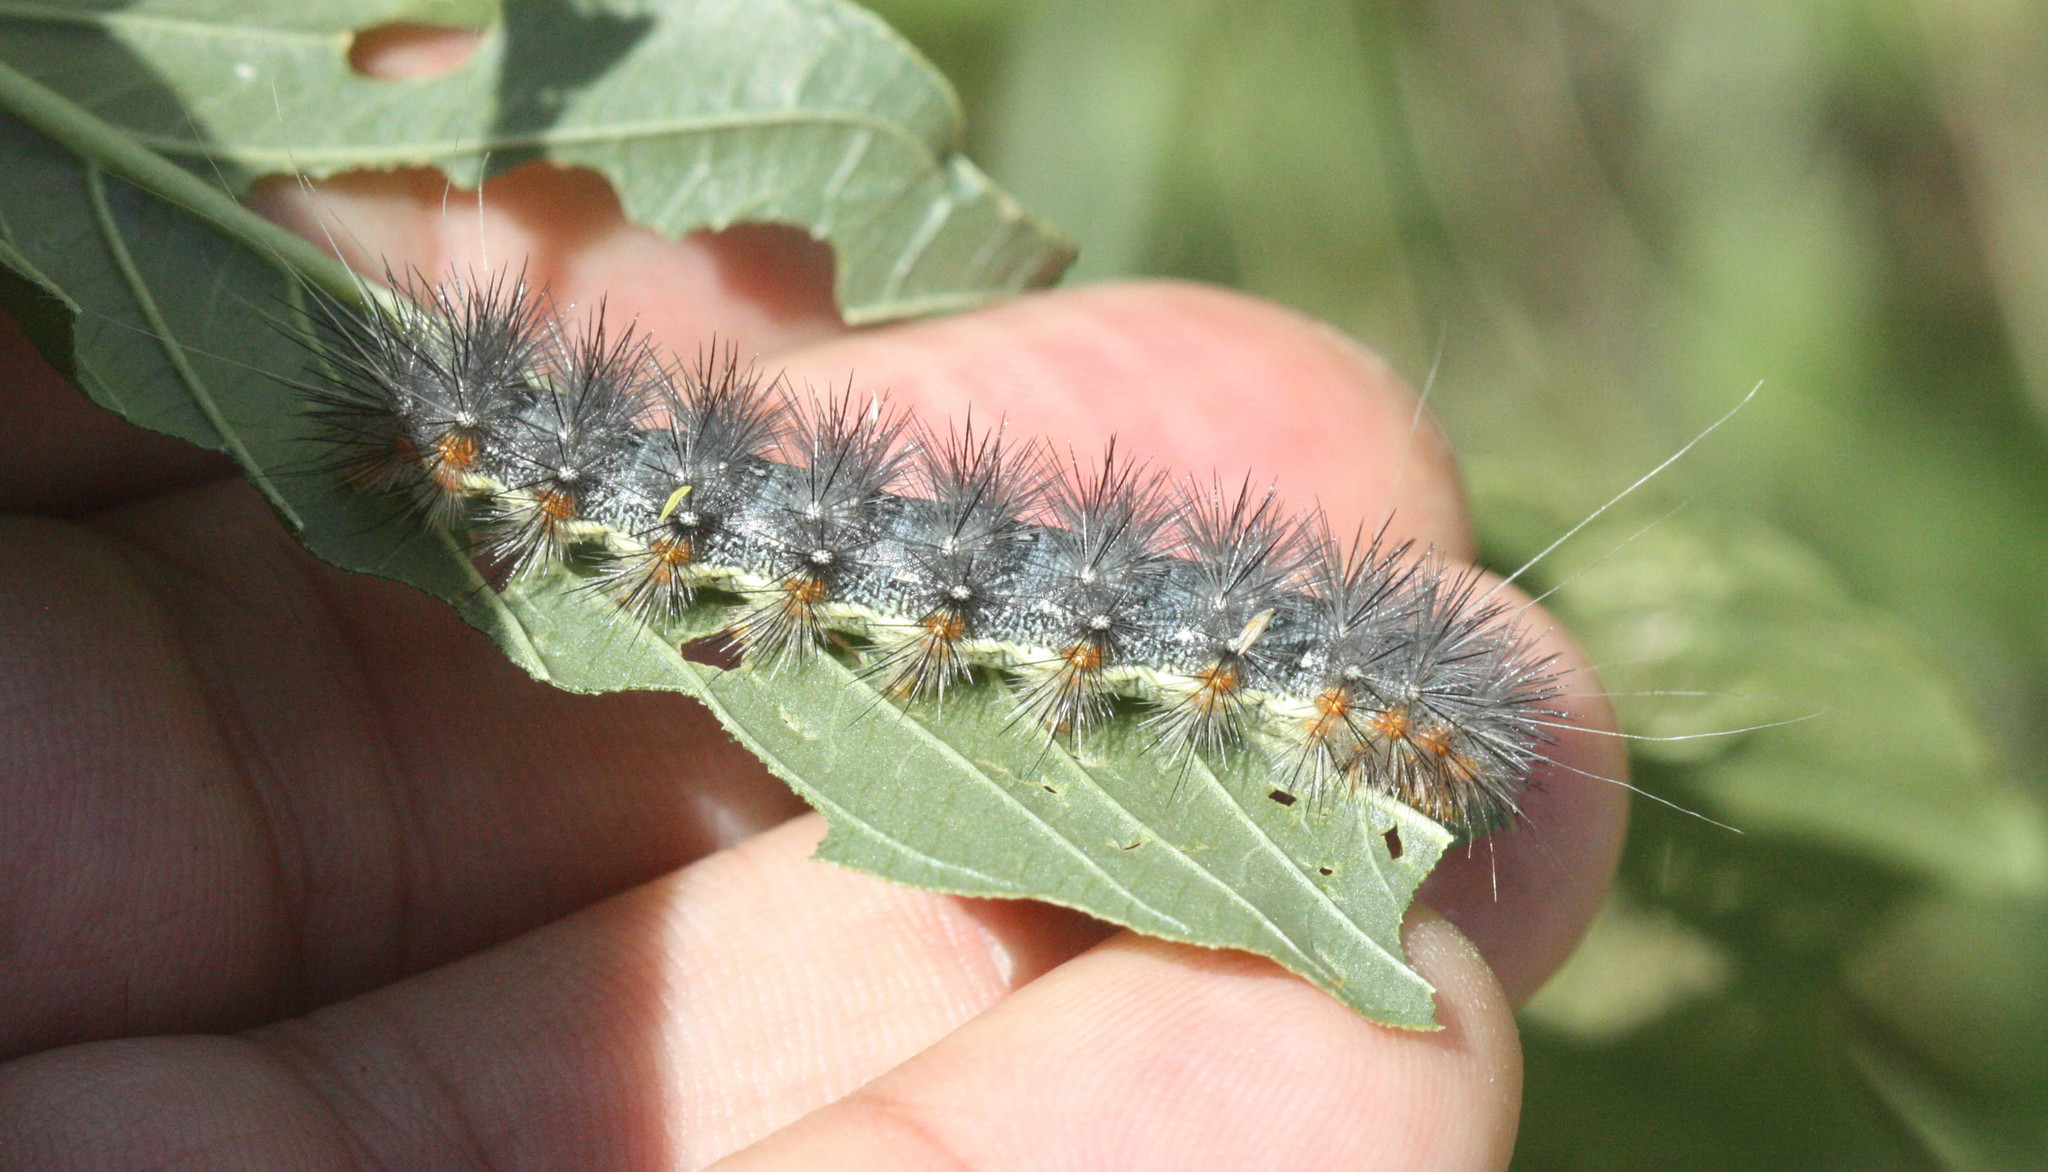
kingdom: Animalia
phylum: Arthropoda
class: Insecta
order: Lepidoptera
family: Erebidae
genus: Hypercompe
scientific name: Hypercompe suffusa
